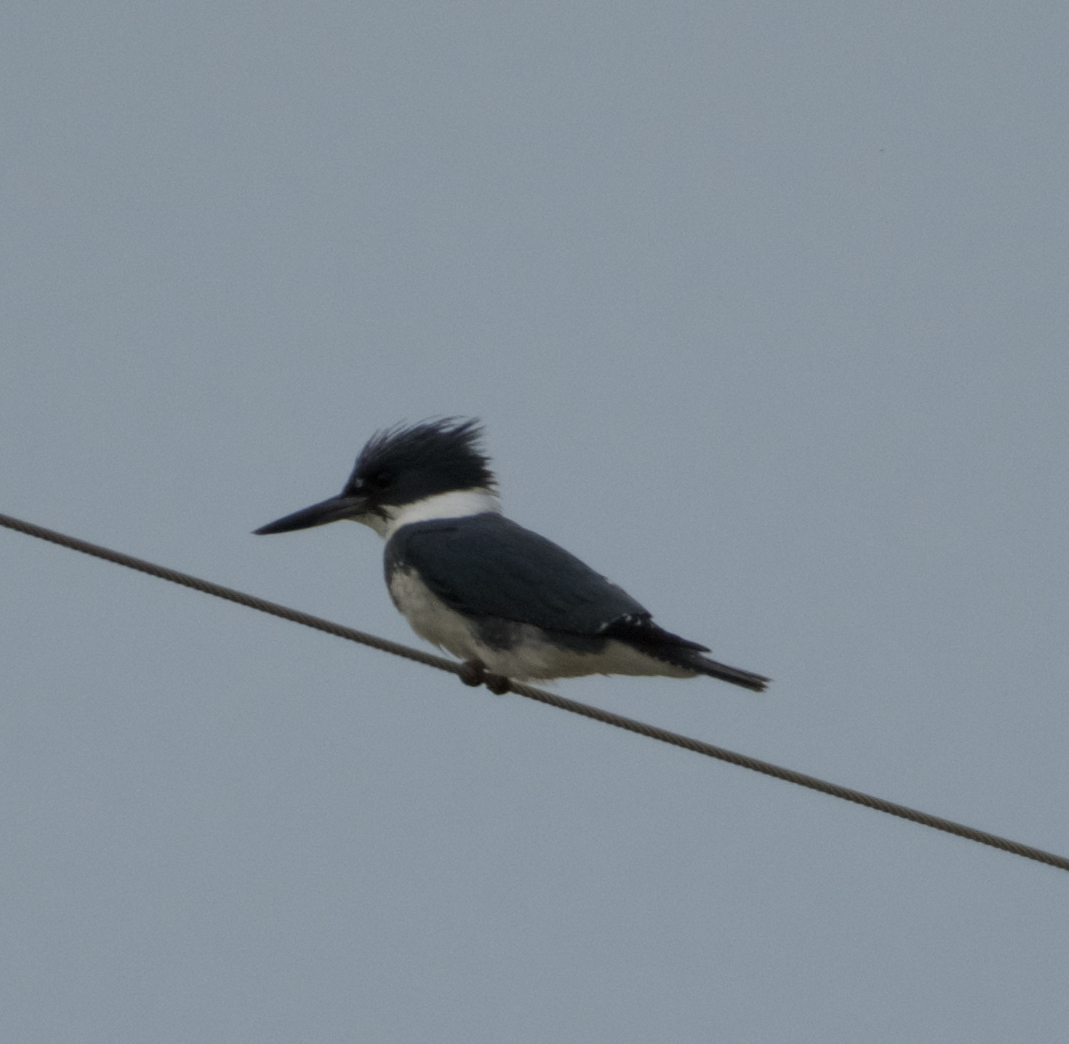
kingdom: Animalia
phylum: Chordata
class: Aves
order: Coraciiformes
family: Alcedinidae
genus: Megaceryle
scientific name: Megaceryle alcyon
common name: Belted kingfisher
